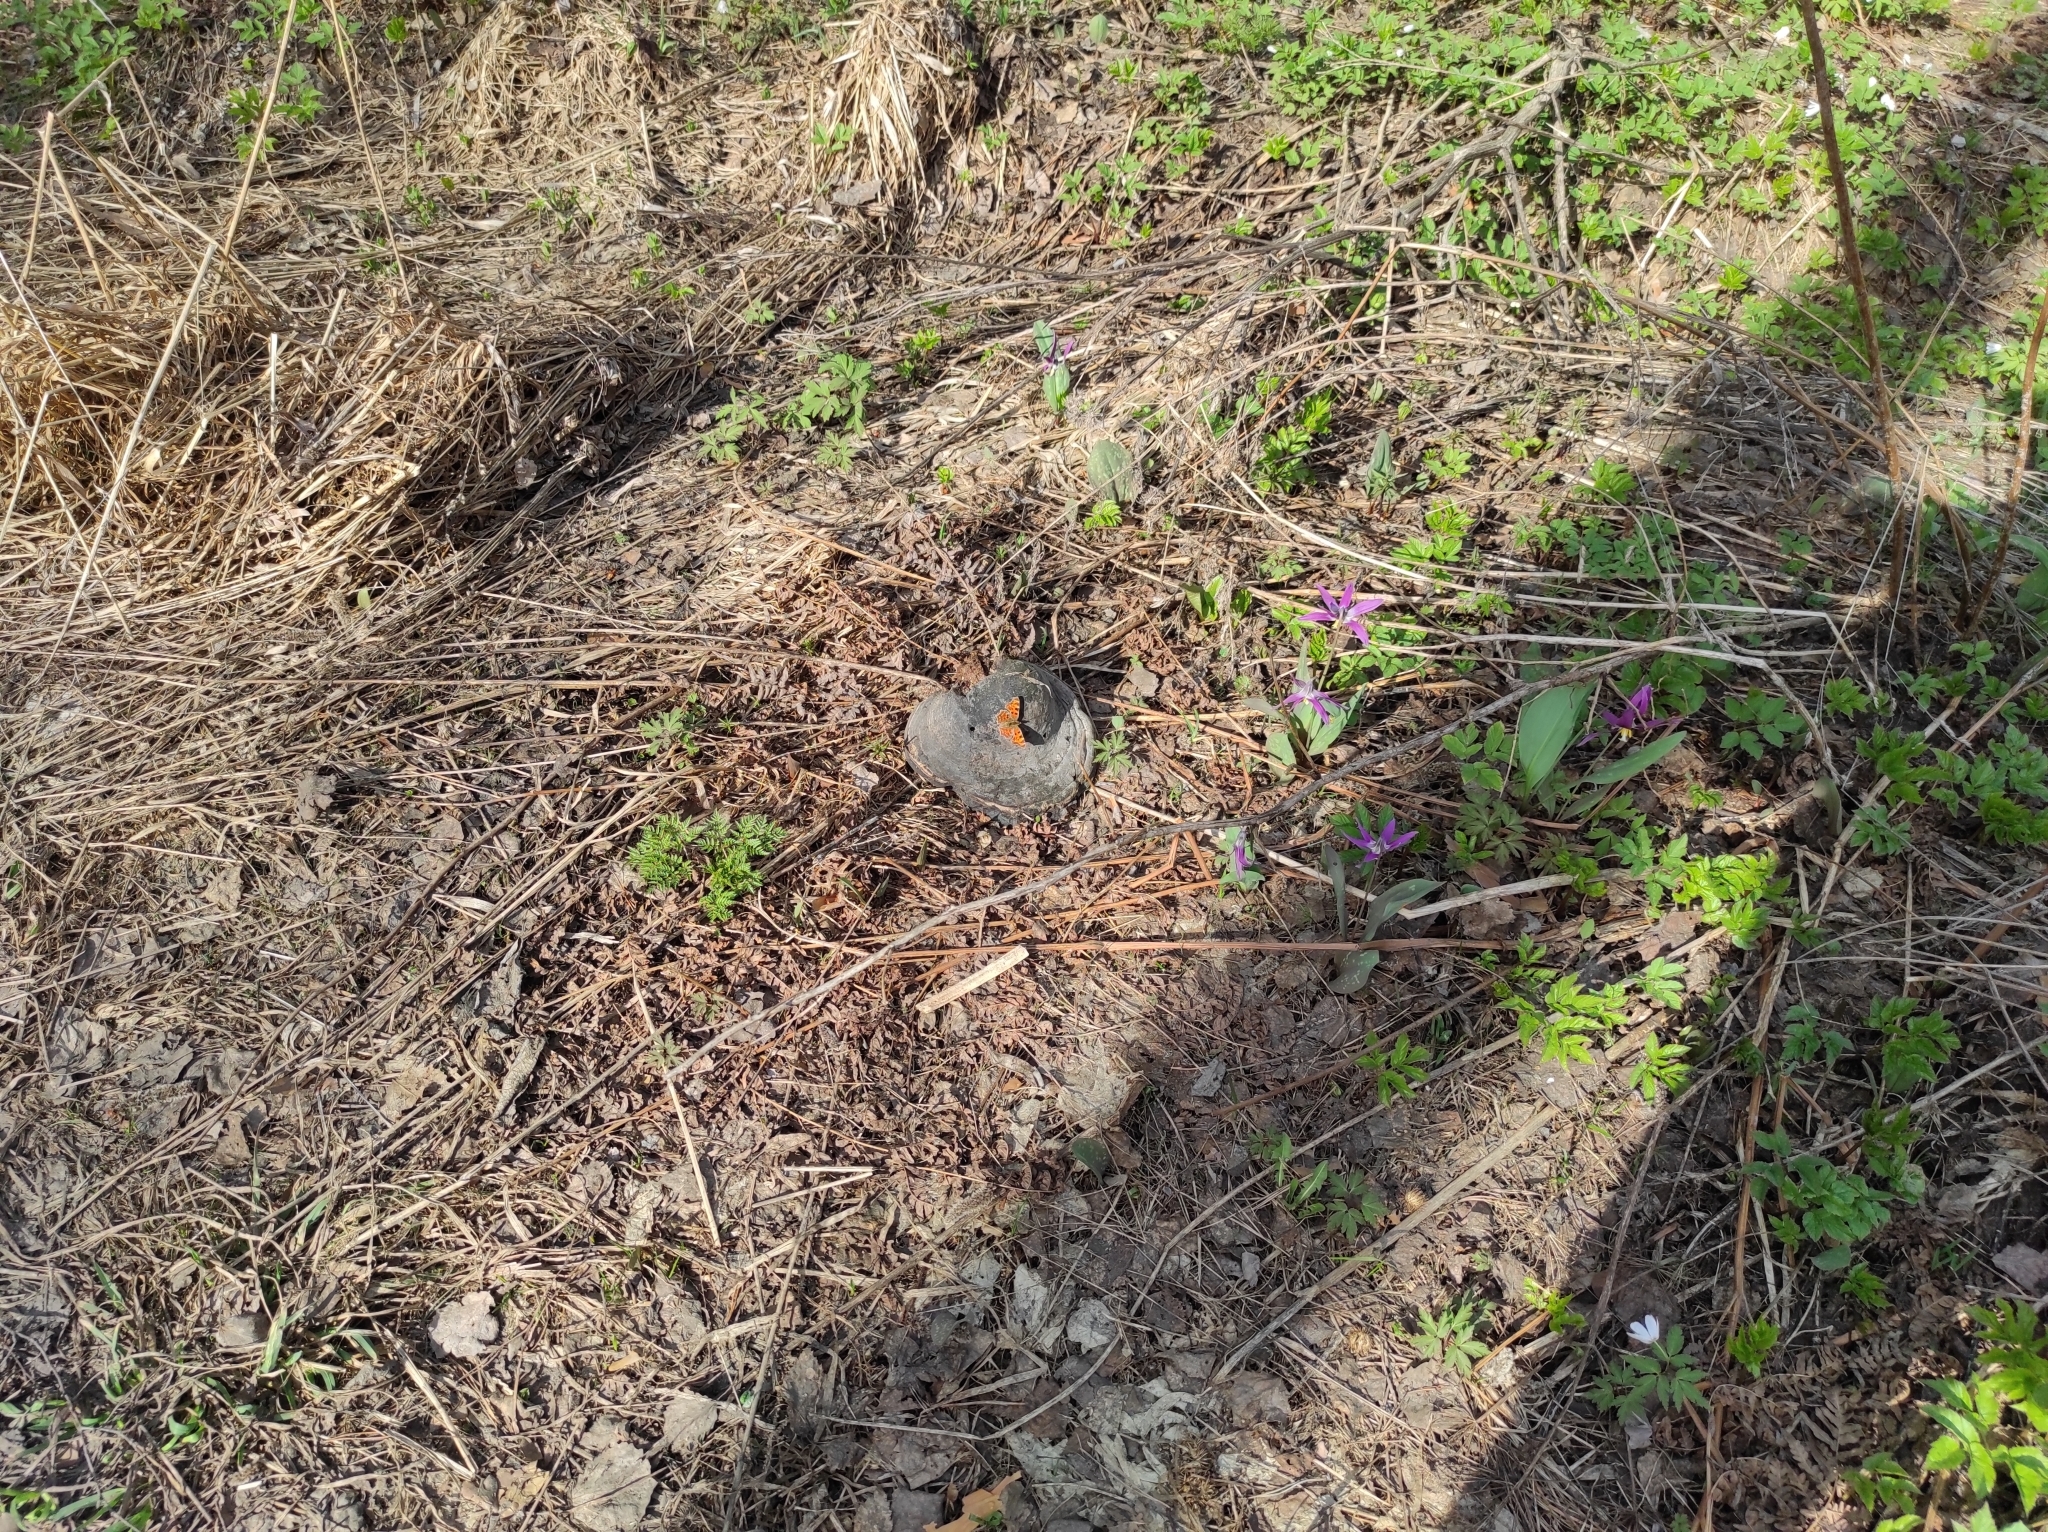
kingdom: Animalia
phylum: Arthropoda
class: Insecta
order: Lepidoptera
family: Nymphalidae
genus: Polygonia
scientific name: Polygonia c-album
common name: Comma
